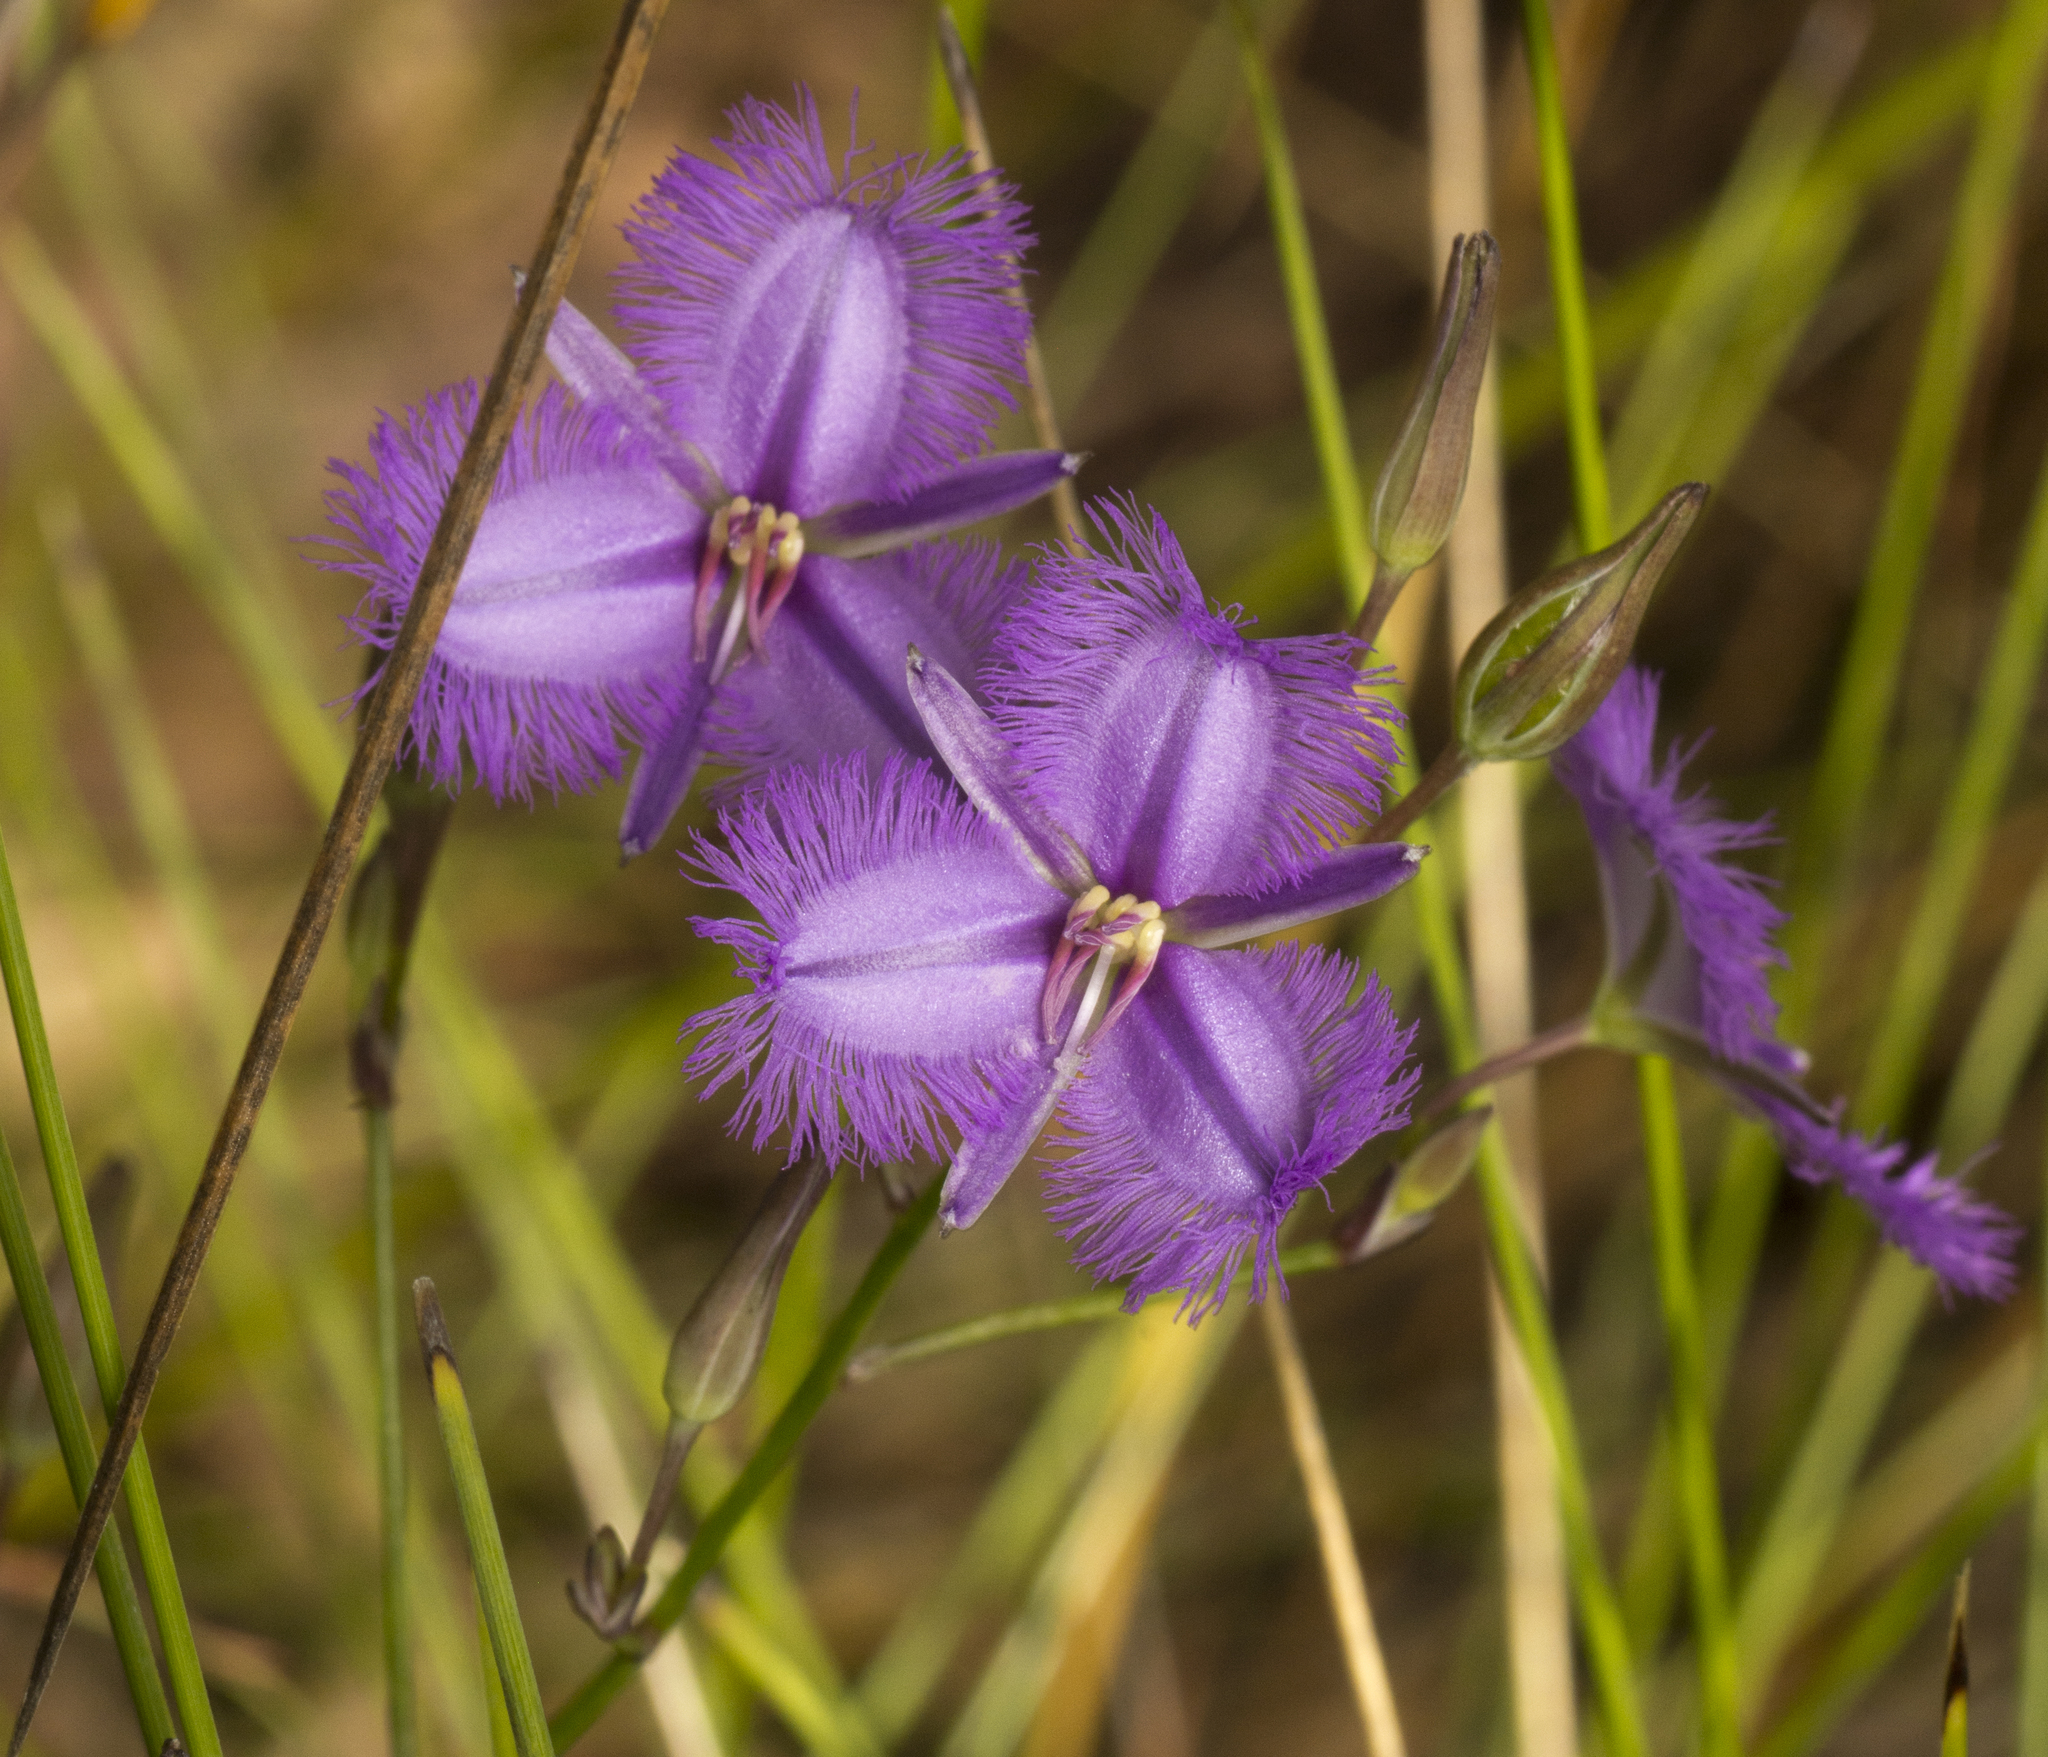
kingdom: Plantae
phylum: Tracheophyta
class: Liliopsida
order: Asparagales
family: Asparagaceae
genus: Thysanotus
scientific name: Thysanotus tuberosus
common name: Common fringed-lily
